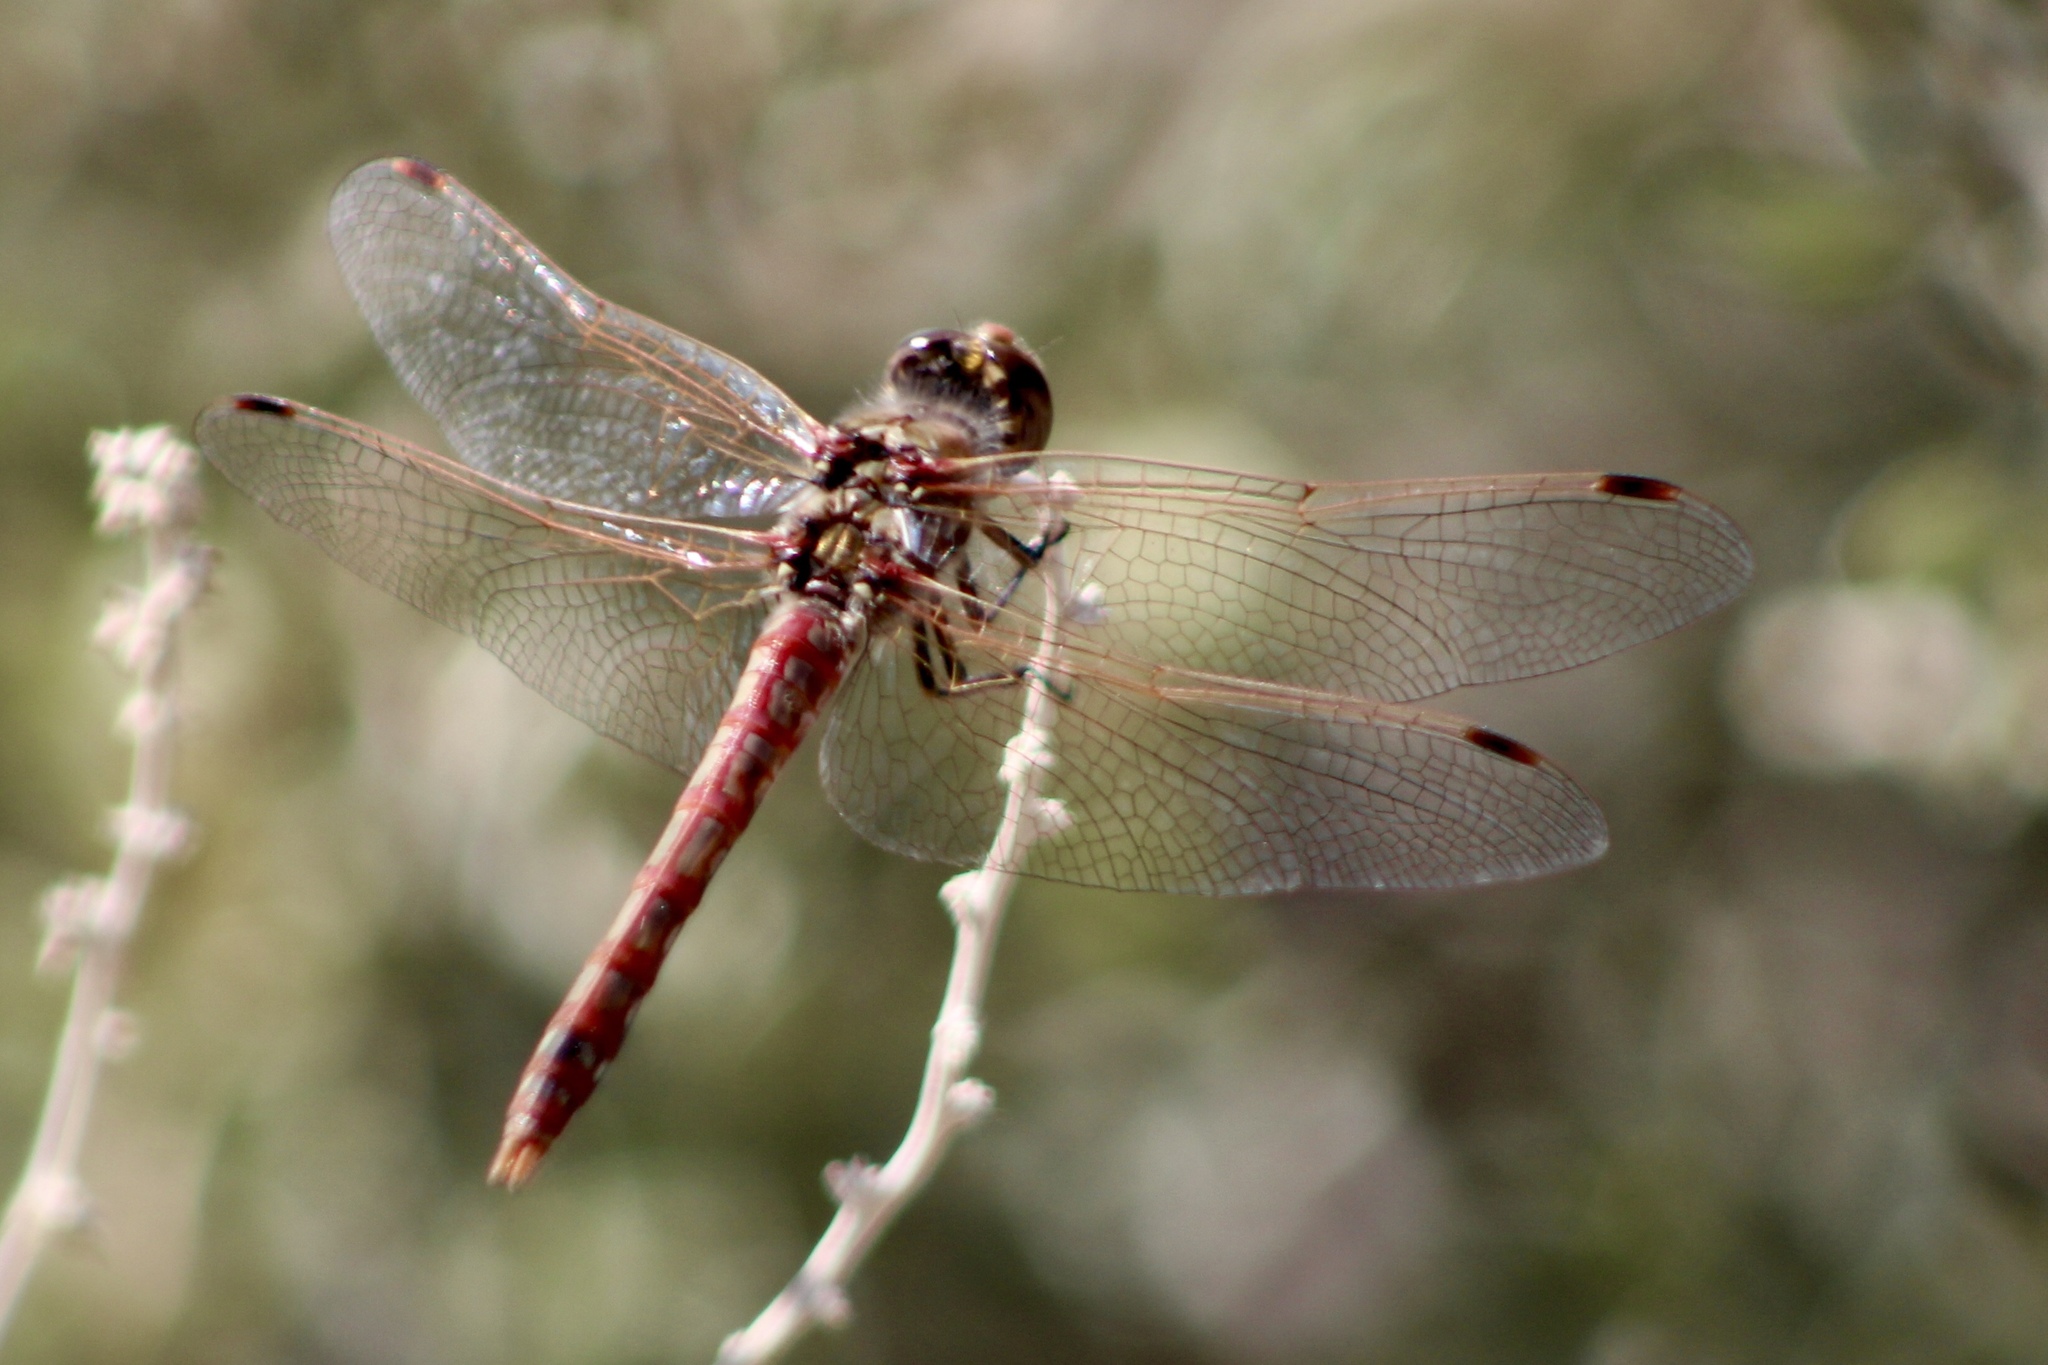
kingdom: Animalia
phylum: Arthropoda
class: Insecta
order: Odonata
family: Libellulidae
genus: Sympetrum
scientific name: Sympetrum corruptum
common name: Variegated meadowhawk
